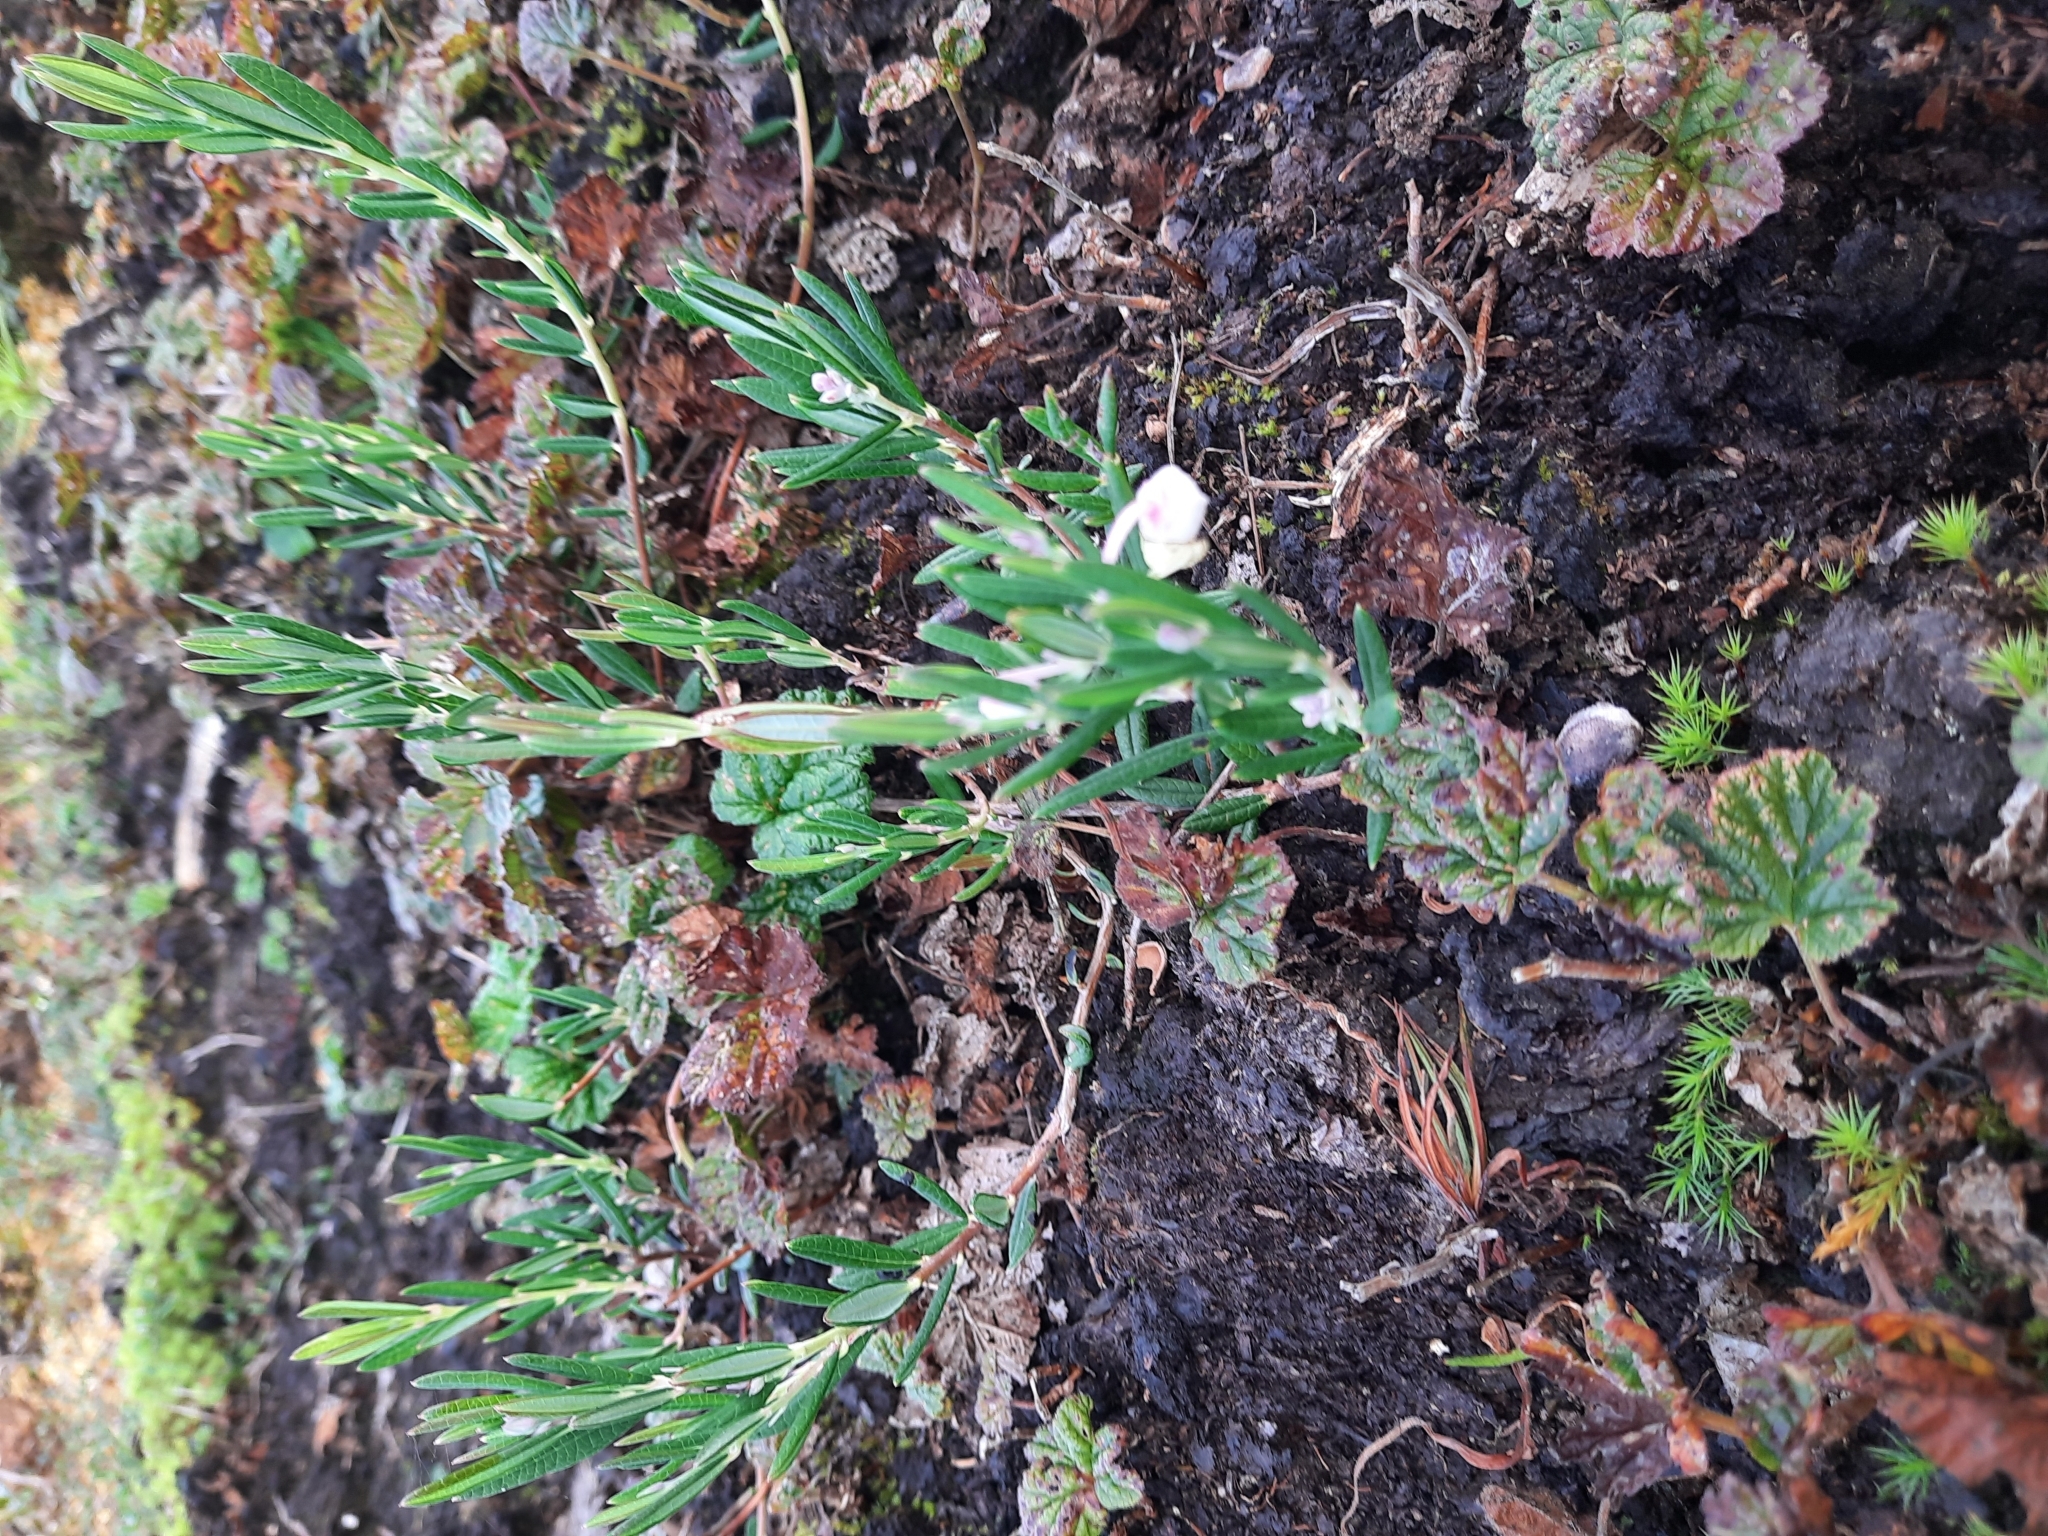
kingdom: Plantae
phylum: Tracheophyta
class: Magnoliopsida
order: Ericales
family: Ericaceae
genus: Andromeda
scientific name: Andromeda polifolia
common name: Bog-rosemary
